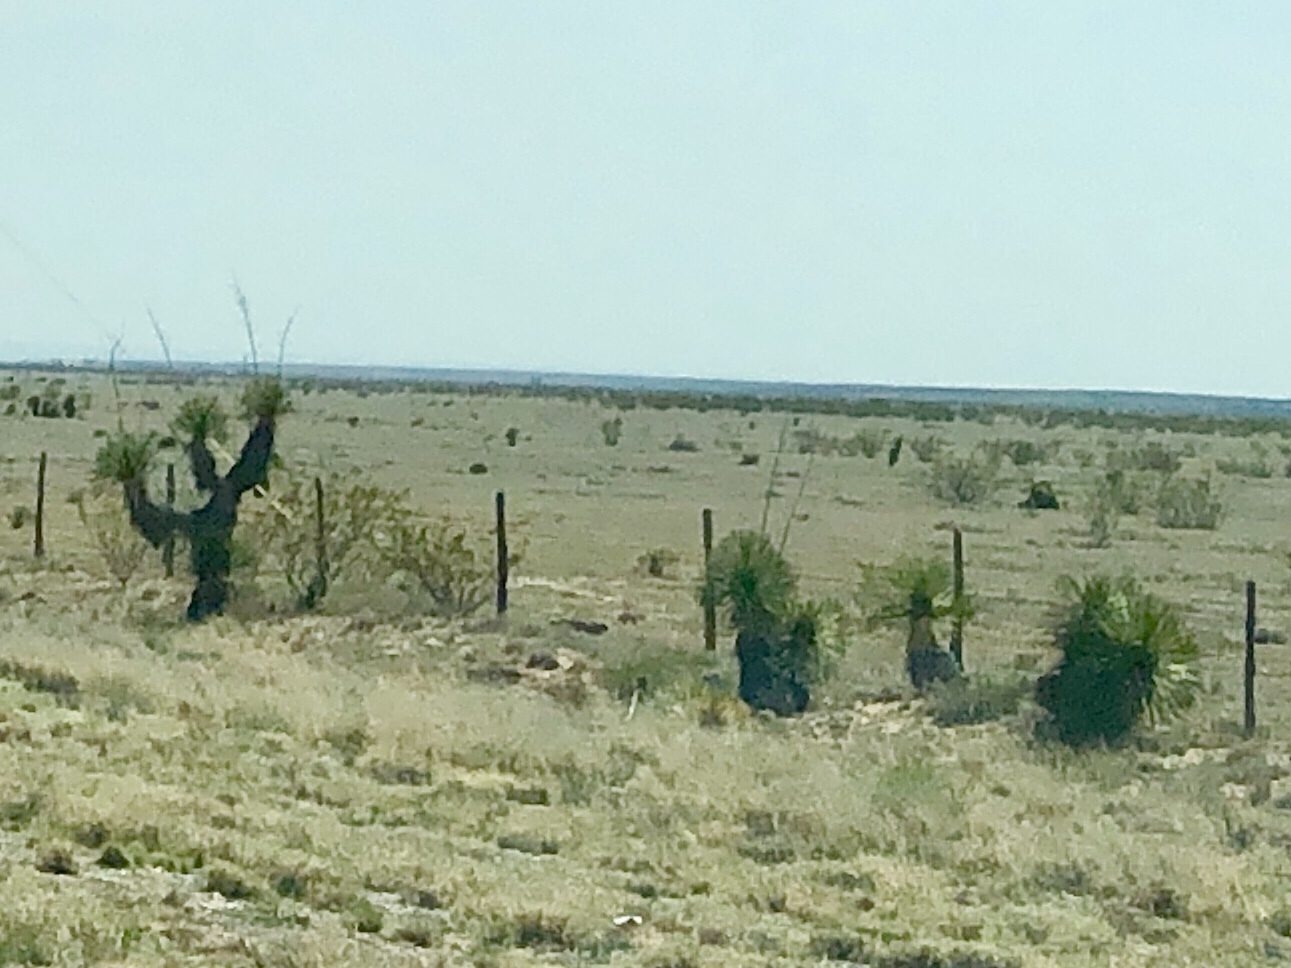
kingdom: Plantae
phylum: Tracheophyta
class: Liliopsida
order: Asparagales
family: Asparagaceae
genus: Yucca
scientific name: Yucca elata
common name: Palmella
